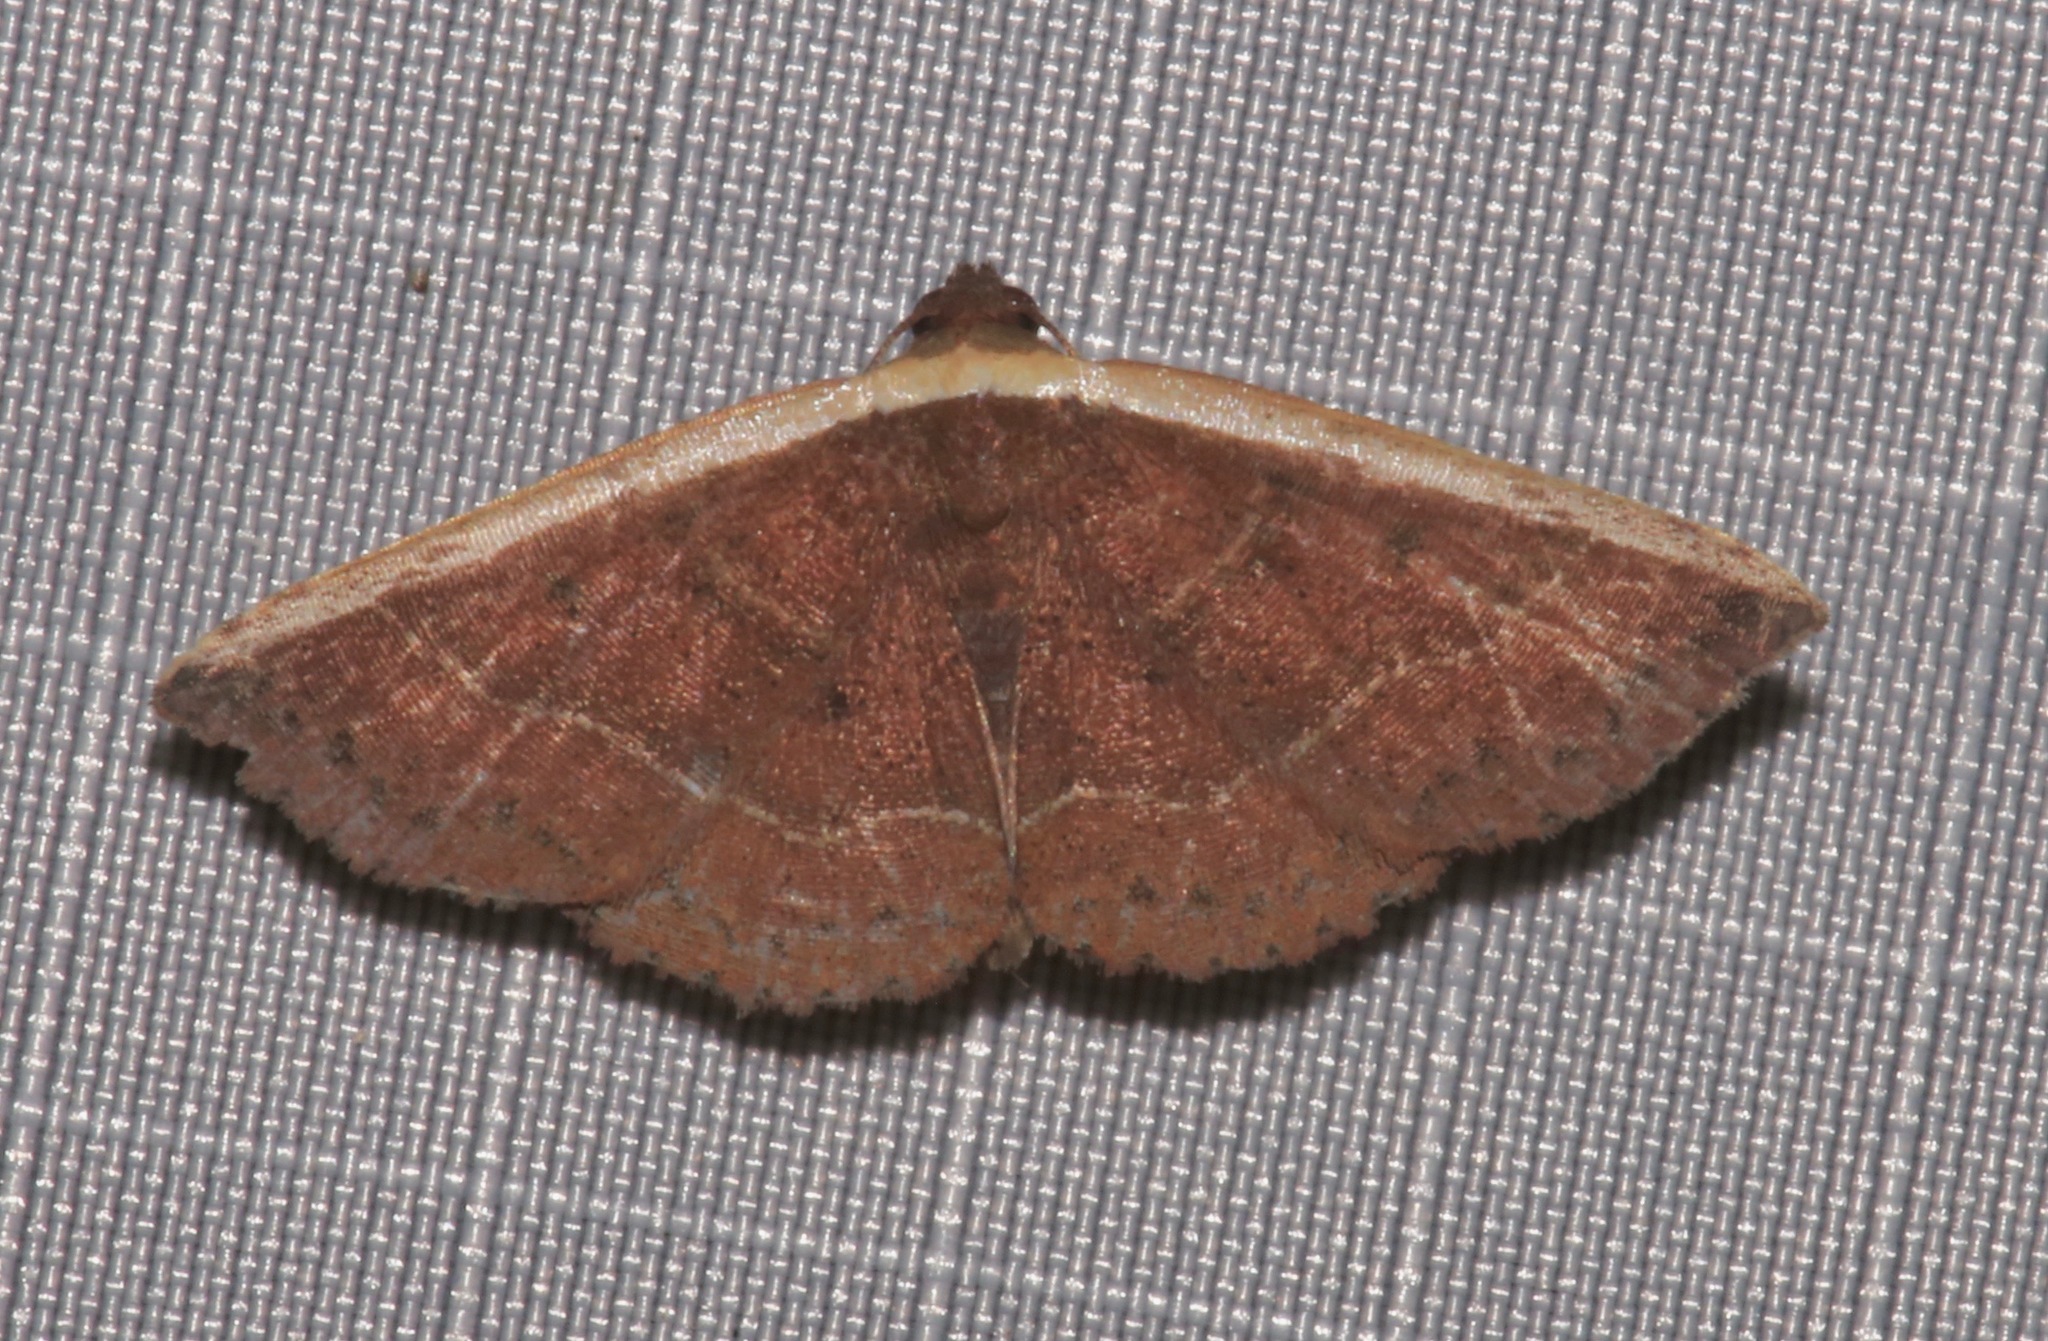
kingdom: Animalia
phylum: Arthropoda
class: Insecta
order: Lepidoptera
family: Noctuidae
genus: Ozarba
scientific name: Ozarba albocostaliata
